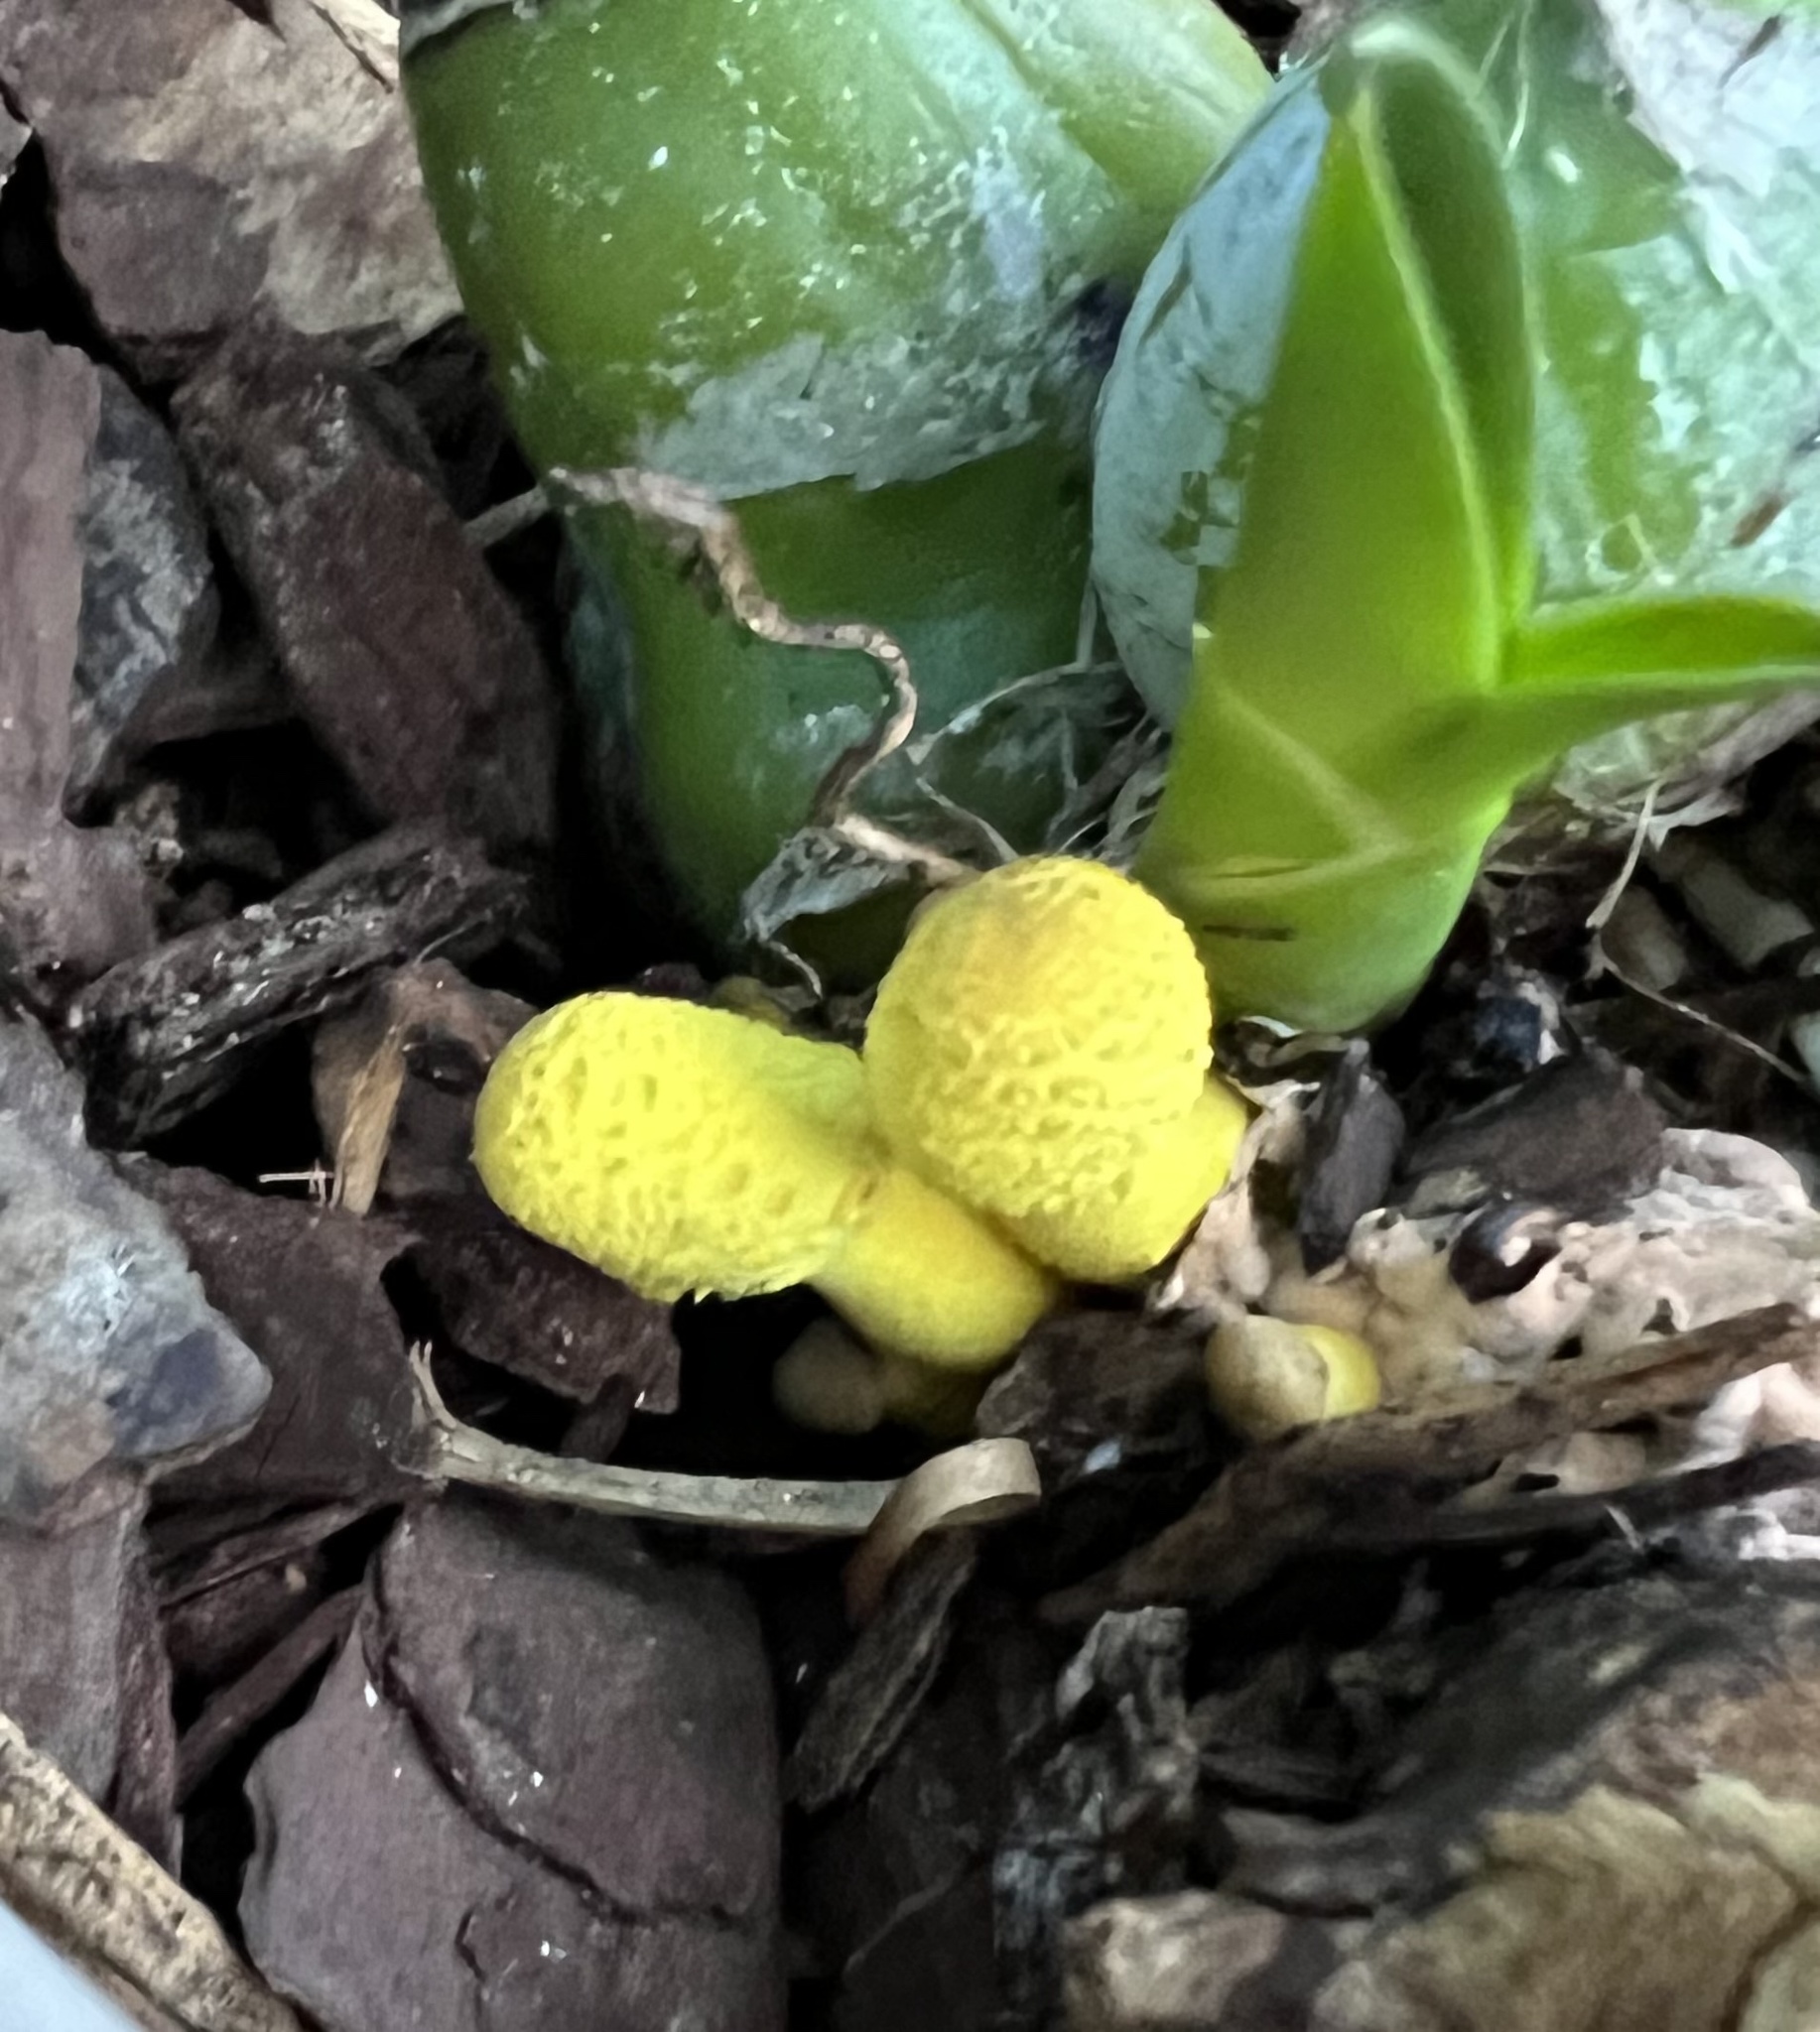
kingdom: Fungi
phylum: Basidiomycota
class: Agaricomycetes
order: Agaricales
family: Agaricaceae
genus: Leucocoprinus
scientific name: Leucocoprinus birnbaumii
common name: Plantpot dapperling
